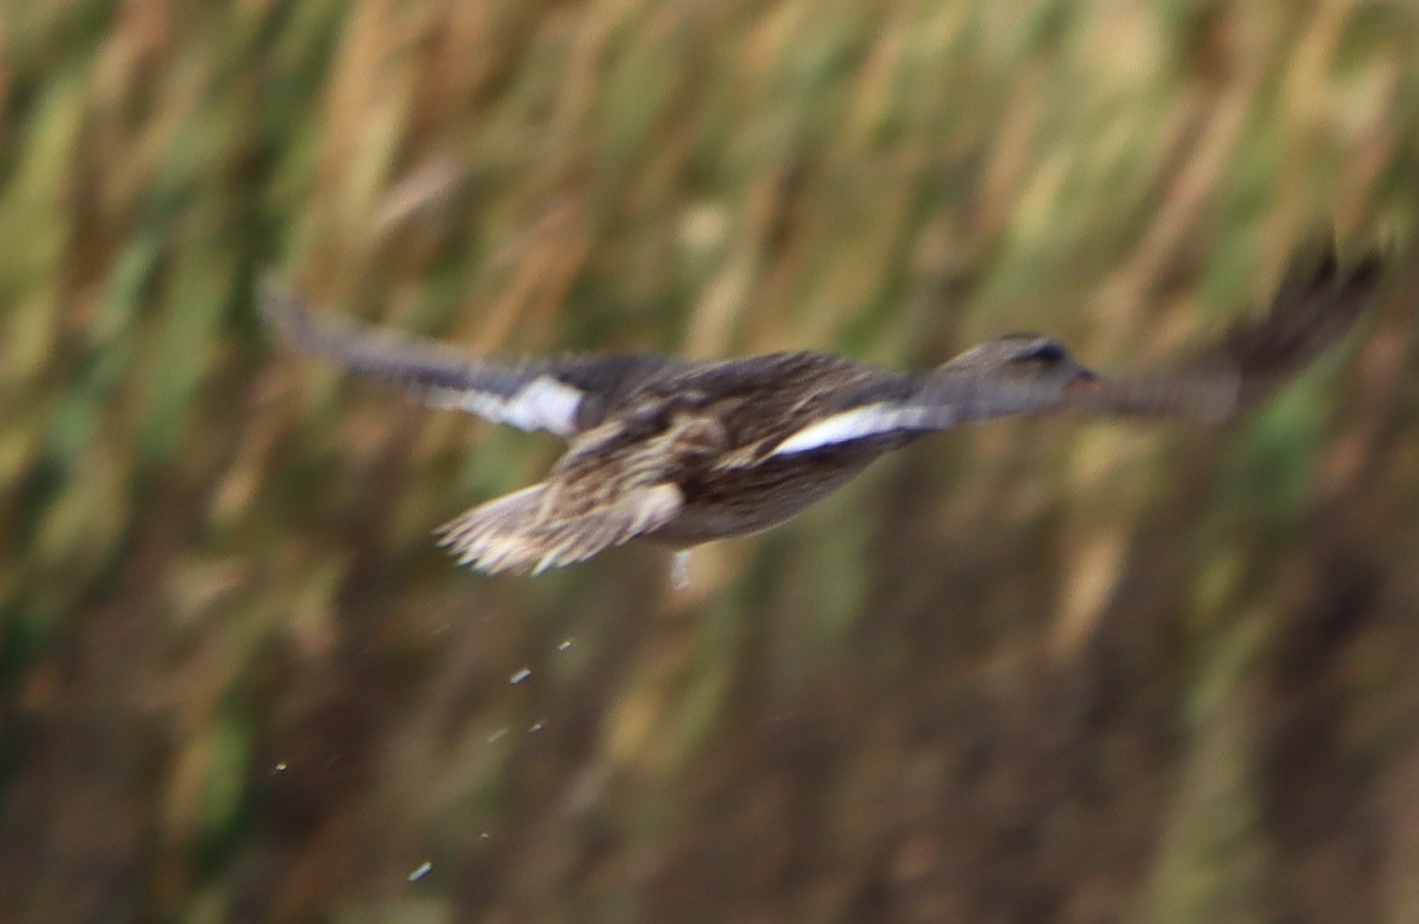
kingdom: Animalia
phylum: Chordata
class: Aves
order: Anseriformes
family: Anatidae
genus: Mareca
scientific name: Mareca strepera
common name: Gadwall
